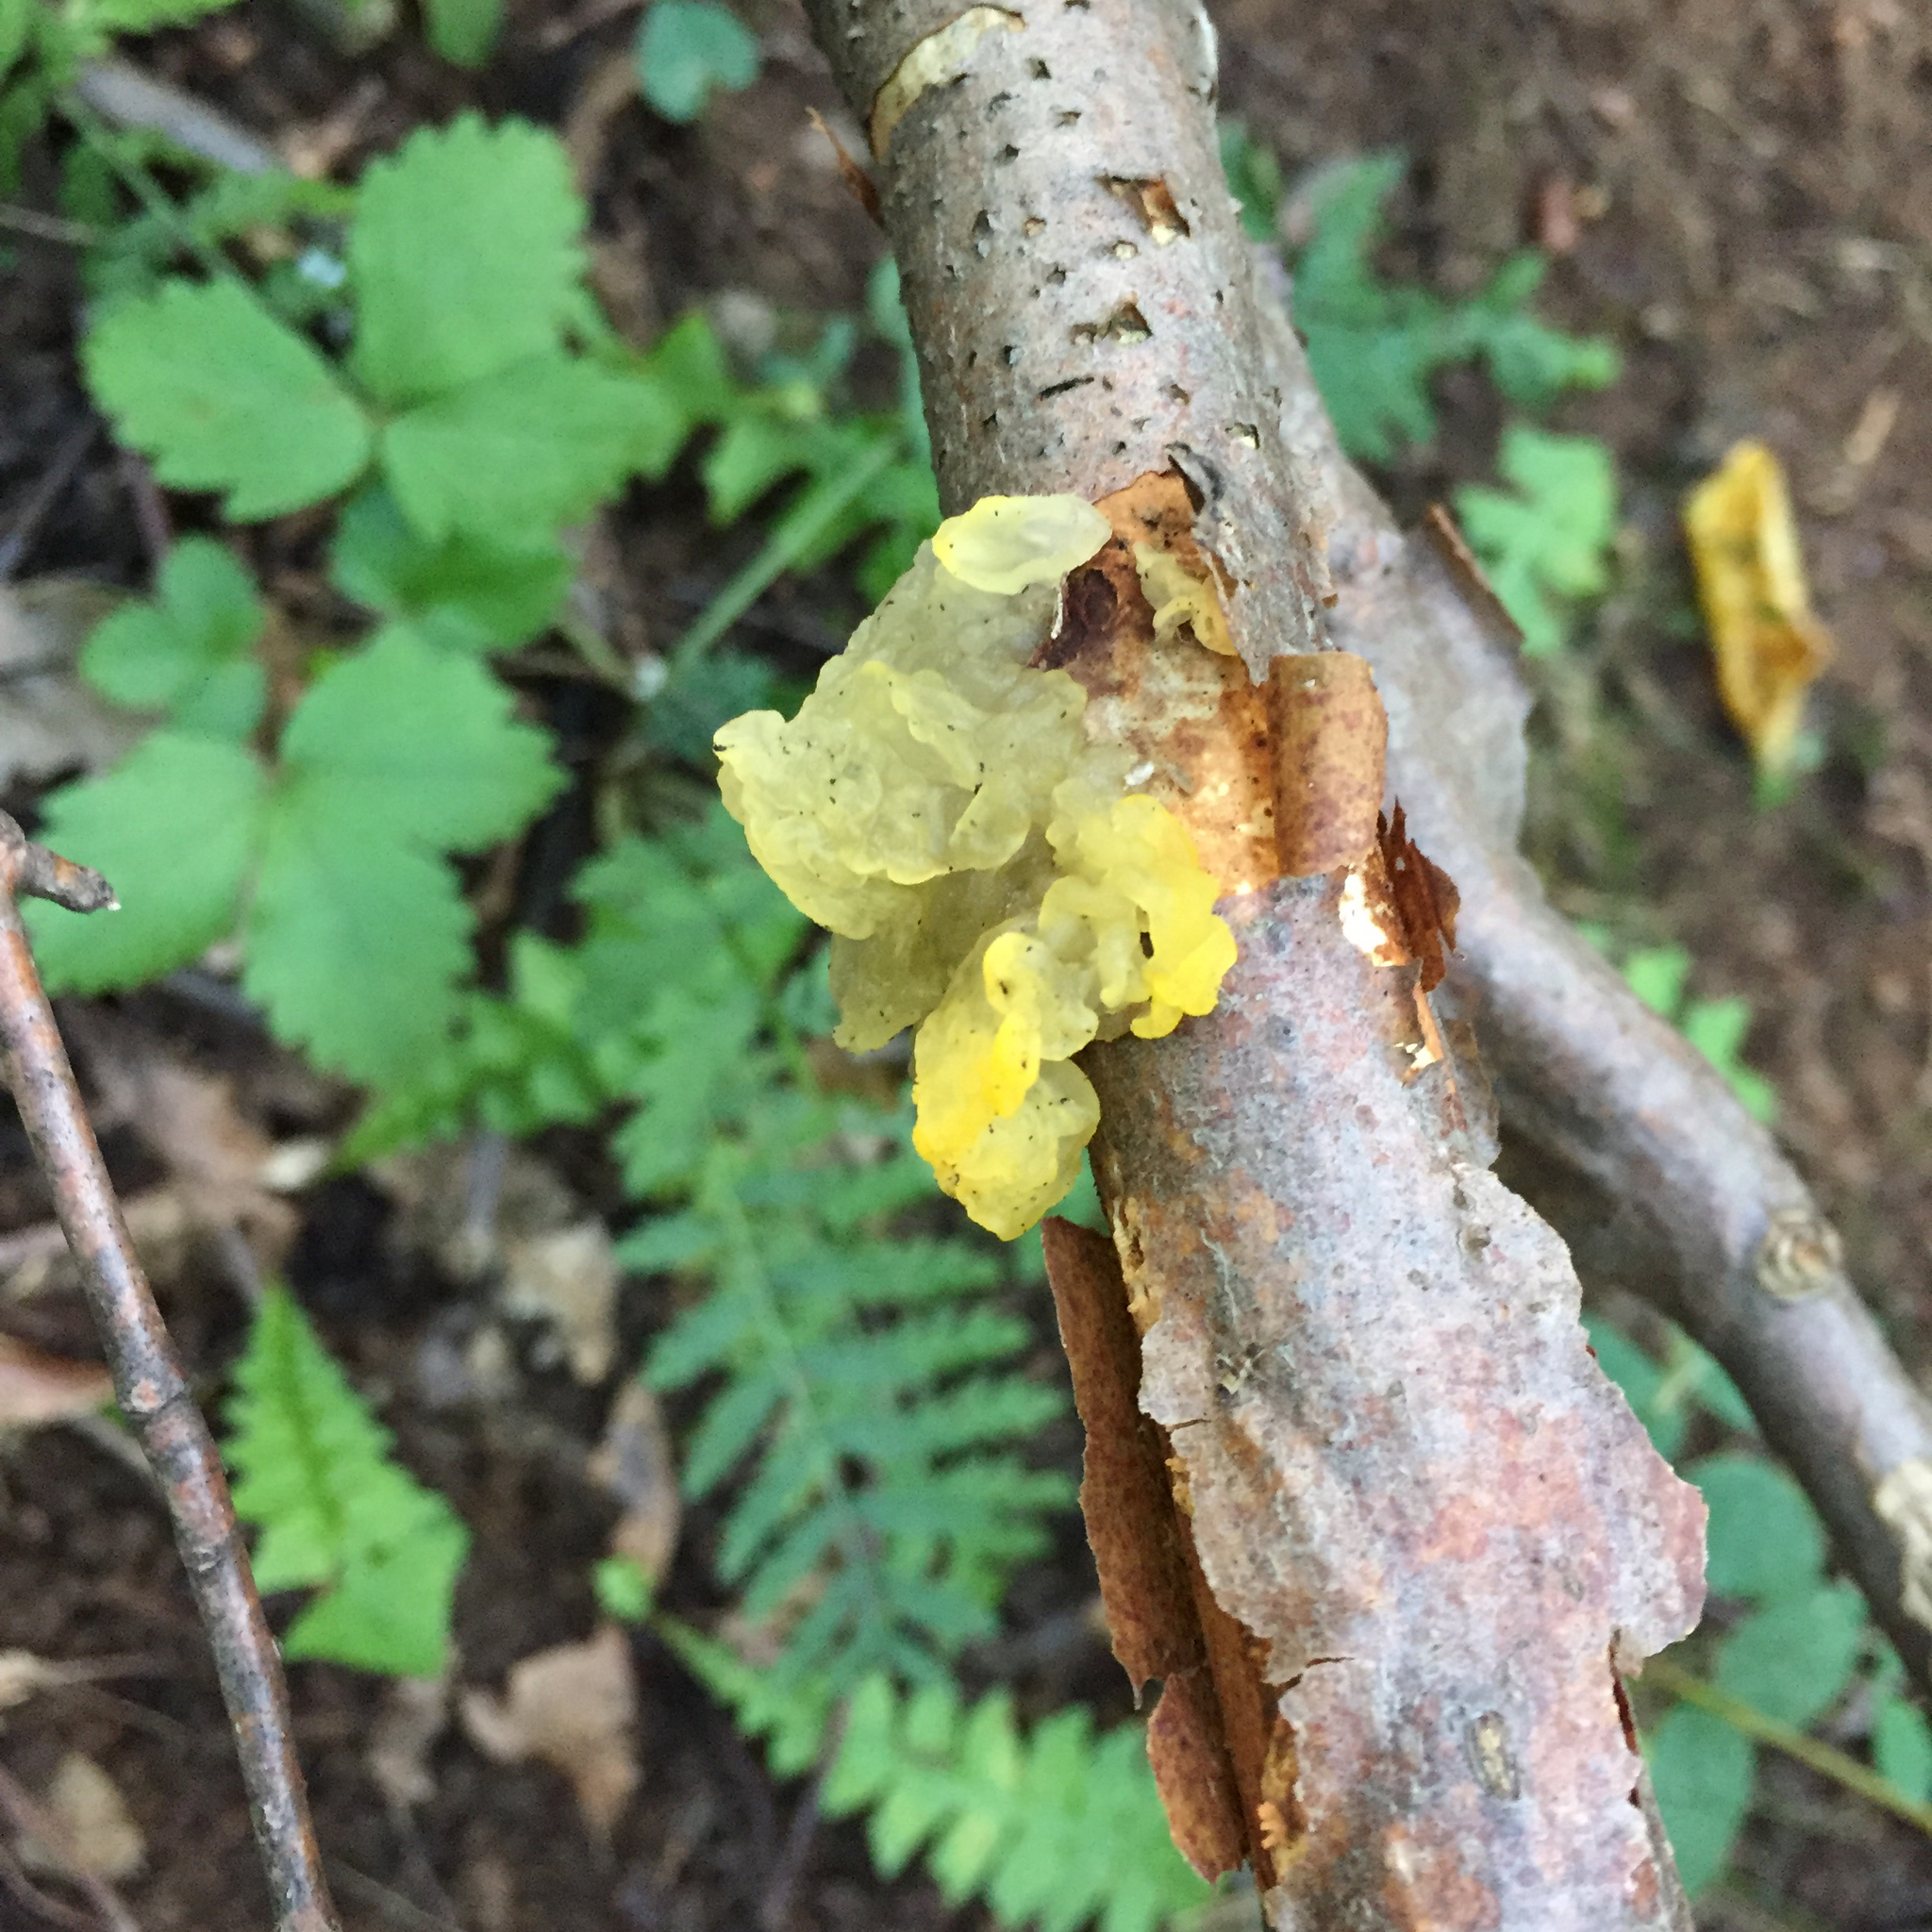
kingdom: Fungi
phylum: Basidiomycota
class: Tremellomycetes
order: Tremellales
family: Tremellaceae
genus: Tremella
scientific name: Tremella mesenterica
